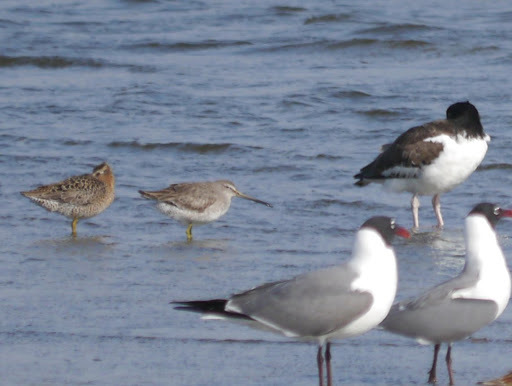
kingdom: Animalia
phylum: Chordata
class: Aves
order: Charadriiformes
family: Scolopacidae
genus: Limnodromus
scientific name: Limnodromus griseus
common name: Short-billed dowitcher
